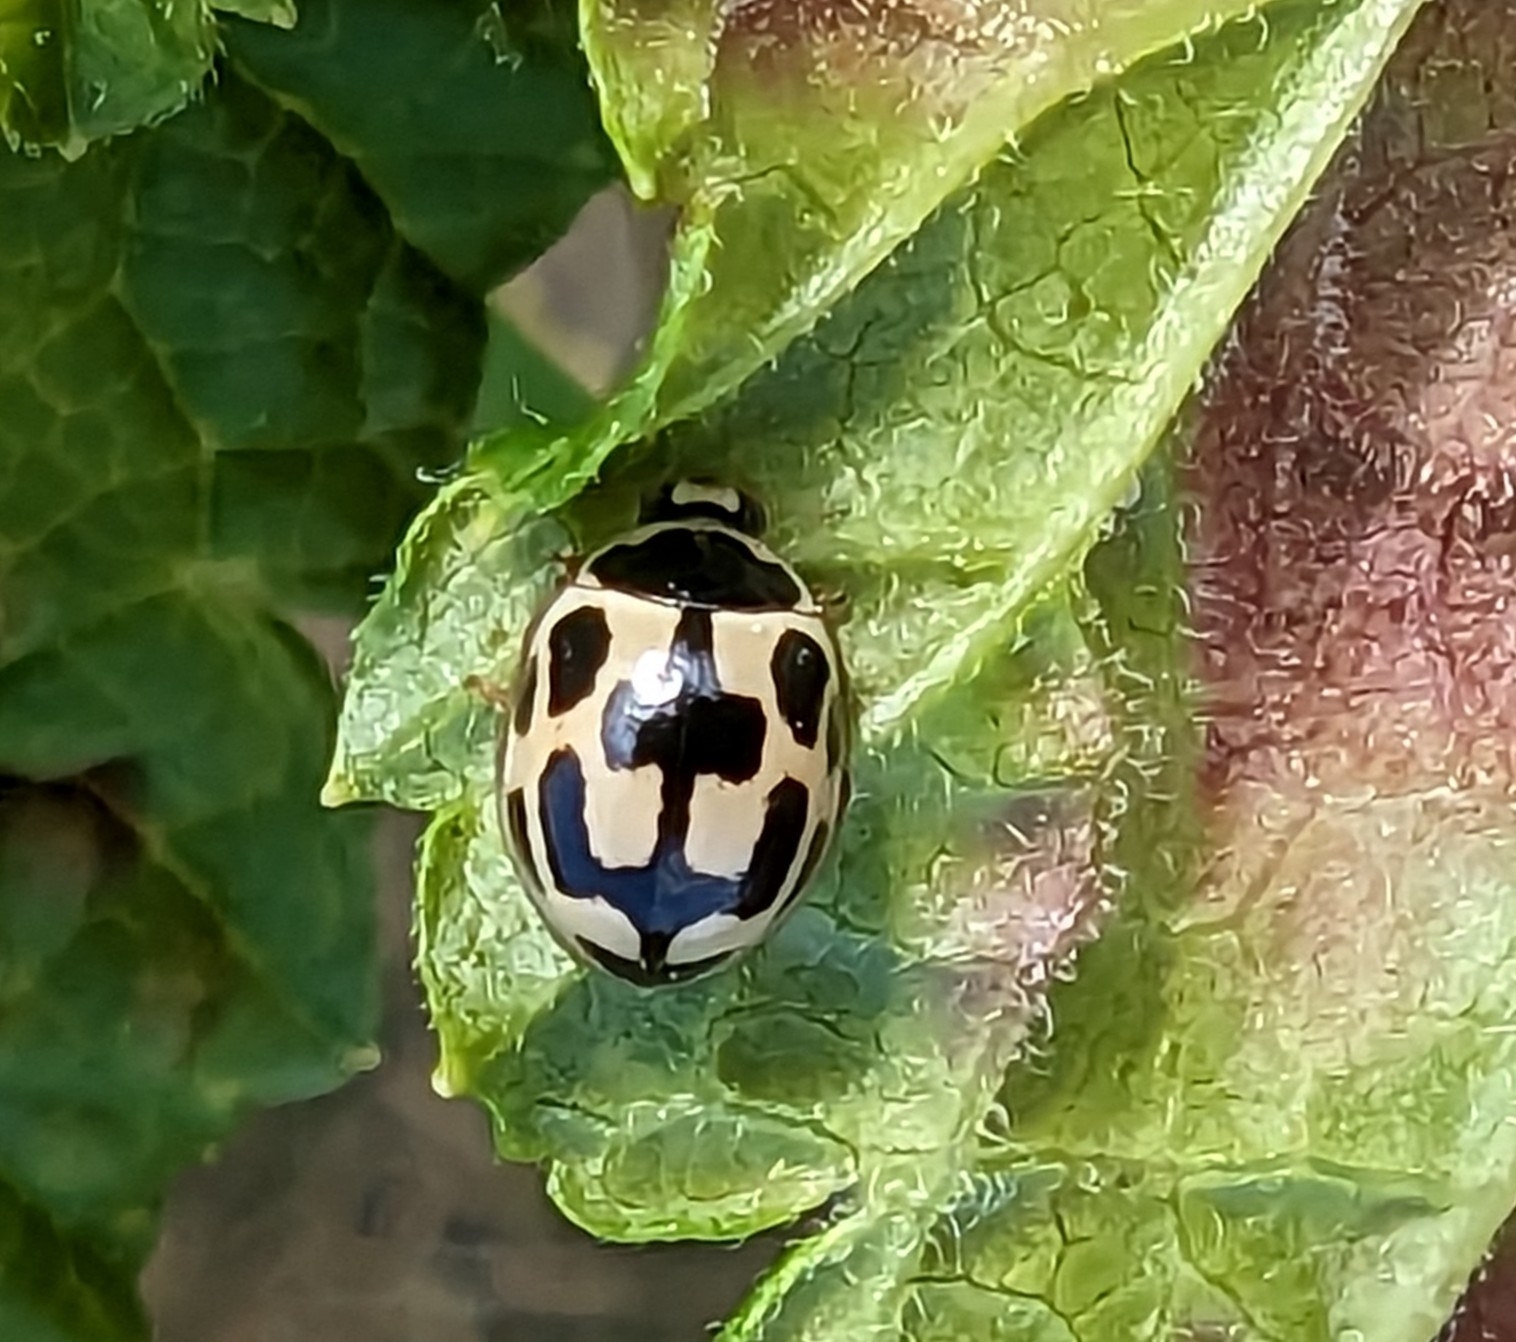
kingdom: Animalia
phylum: Arthropoda
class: Insecta
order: Coleoptera
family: Coccinellidae
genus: Propylaea
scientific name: Propylaea quatuordecimpunctata
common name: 14-spotted ladybird beetle
